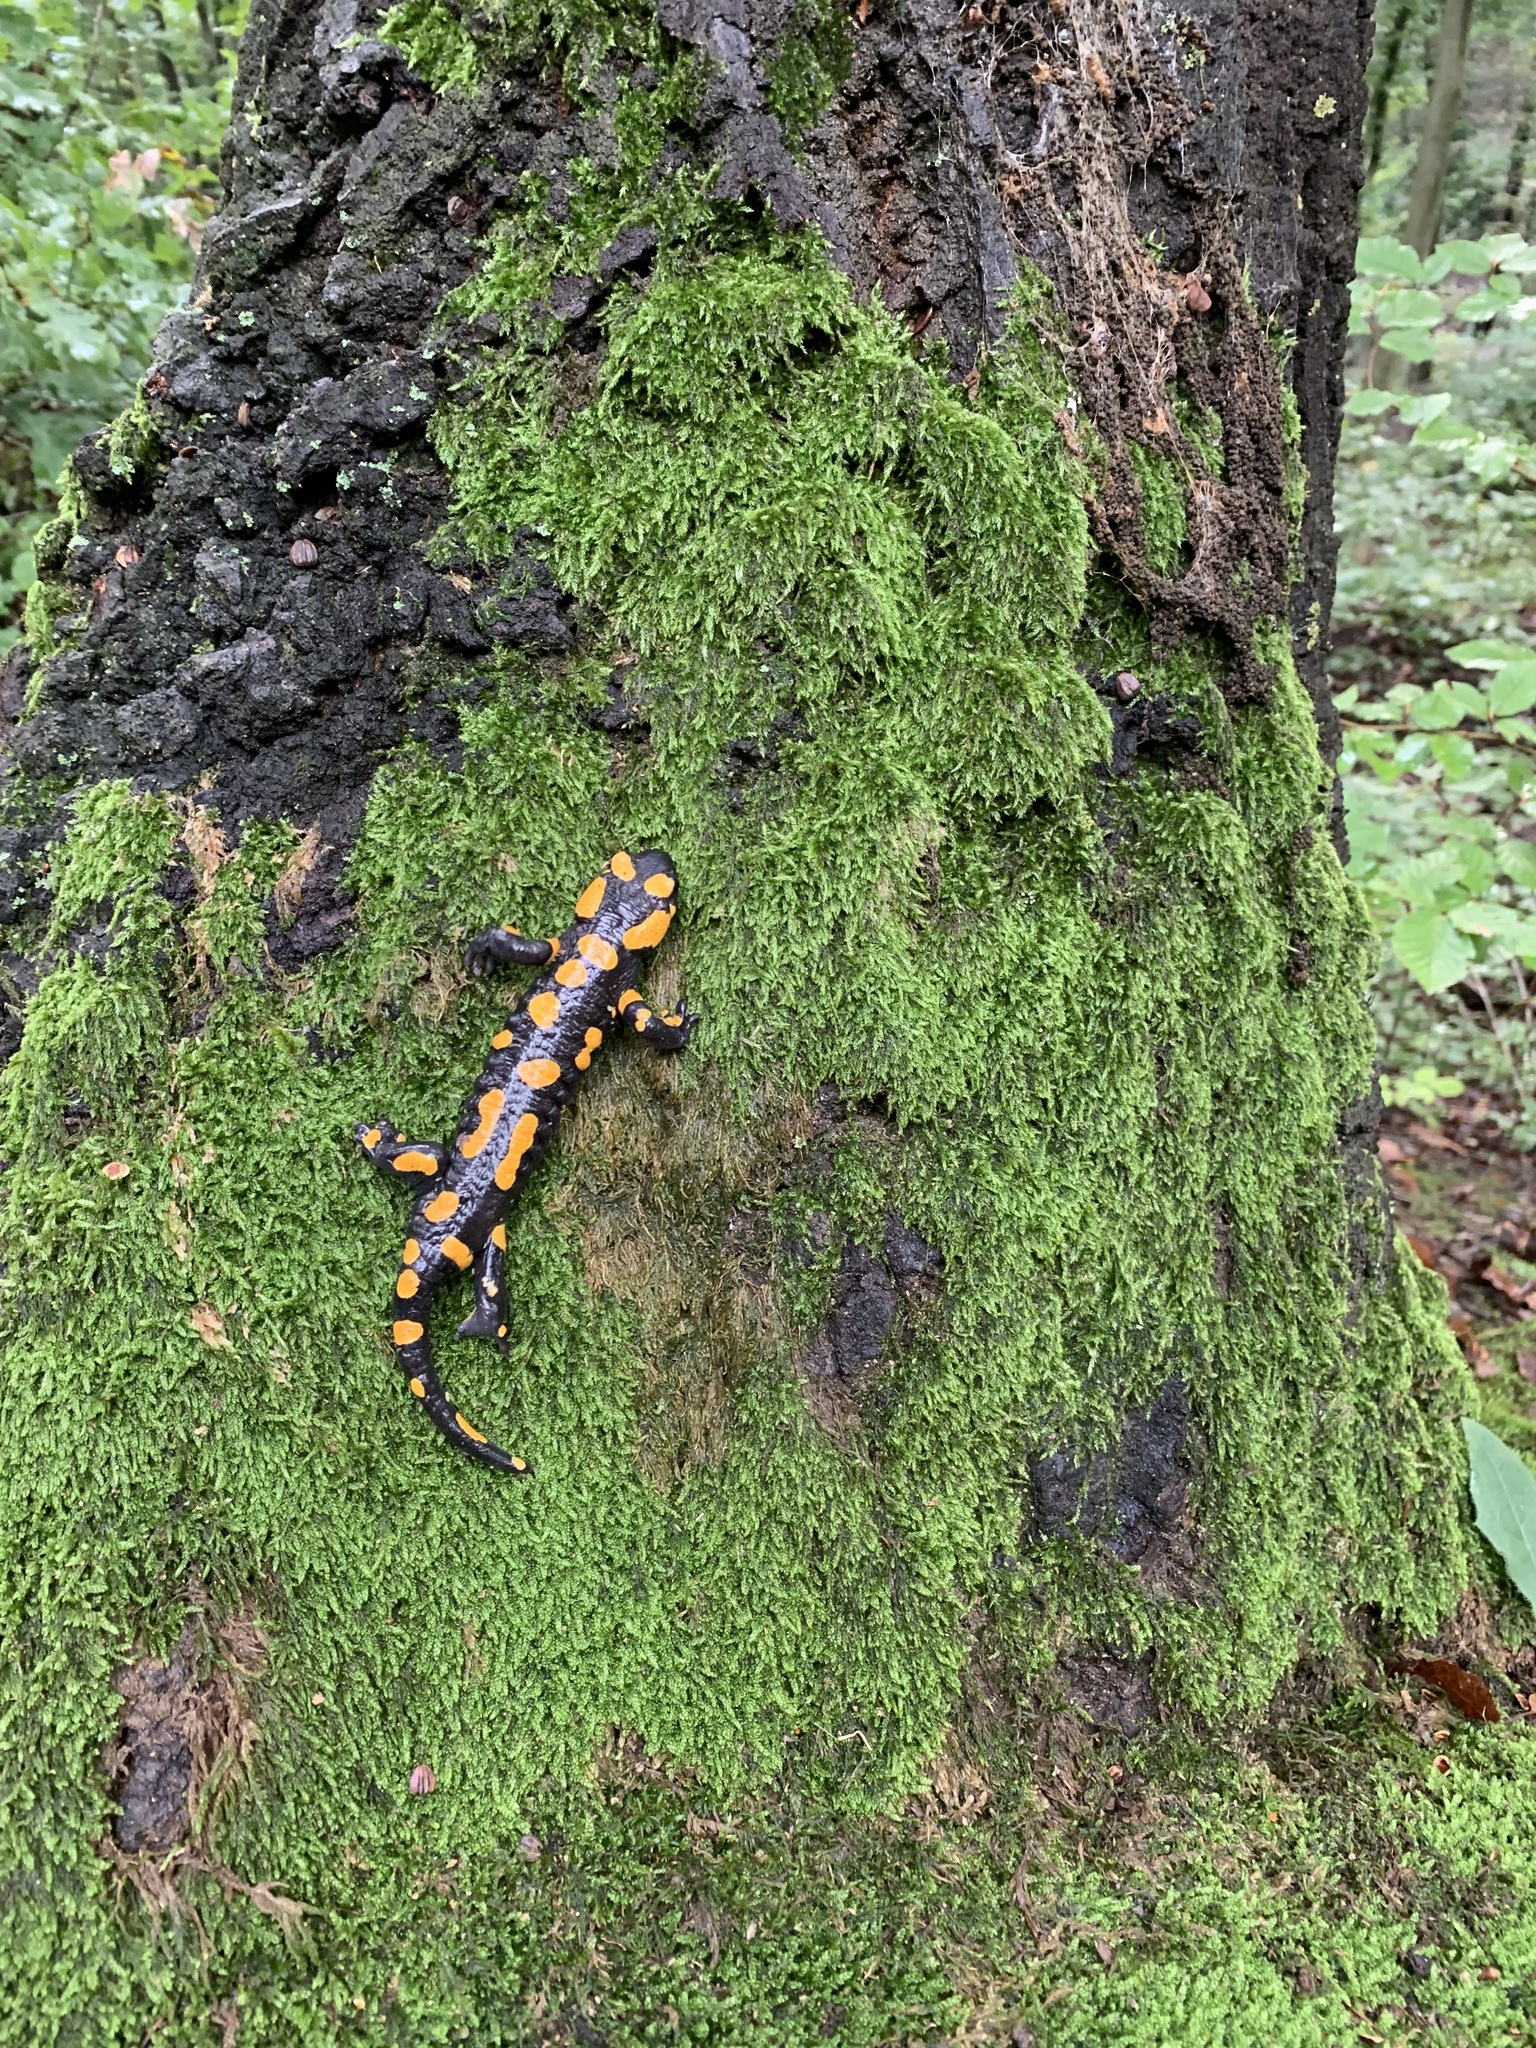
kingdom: Animalia
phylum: Chordata
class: Amphibia
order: Caudata
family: Salamandridae
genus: Salamandra
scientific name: Salamandra salamandra
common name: Fire salamander
